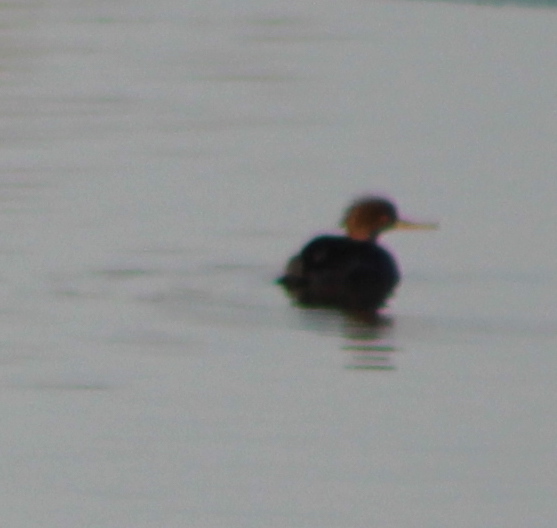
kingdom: Animalia
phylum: Chordata
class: Aves
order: Anseriformes
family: Anatidae
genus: Mergus
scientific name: Mergus serrator
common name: Red-breasted merganser
